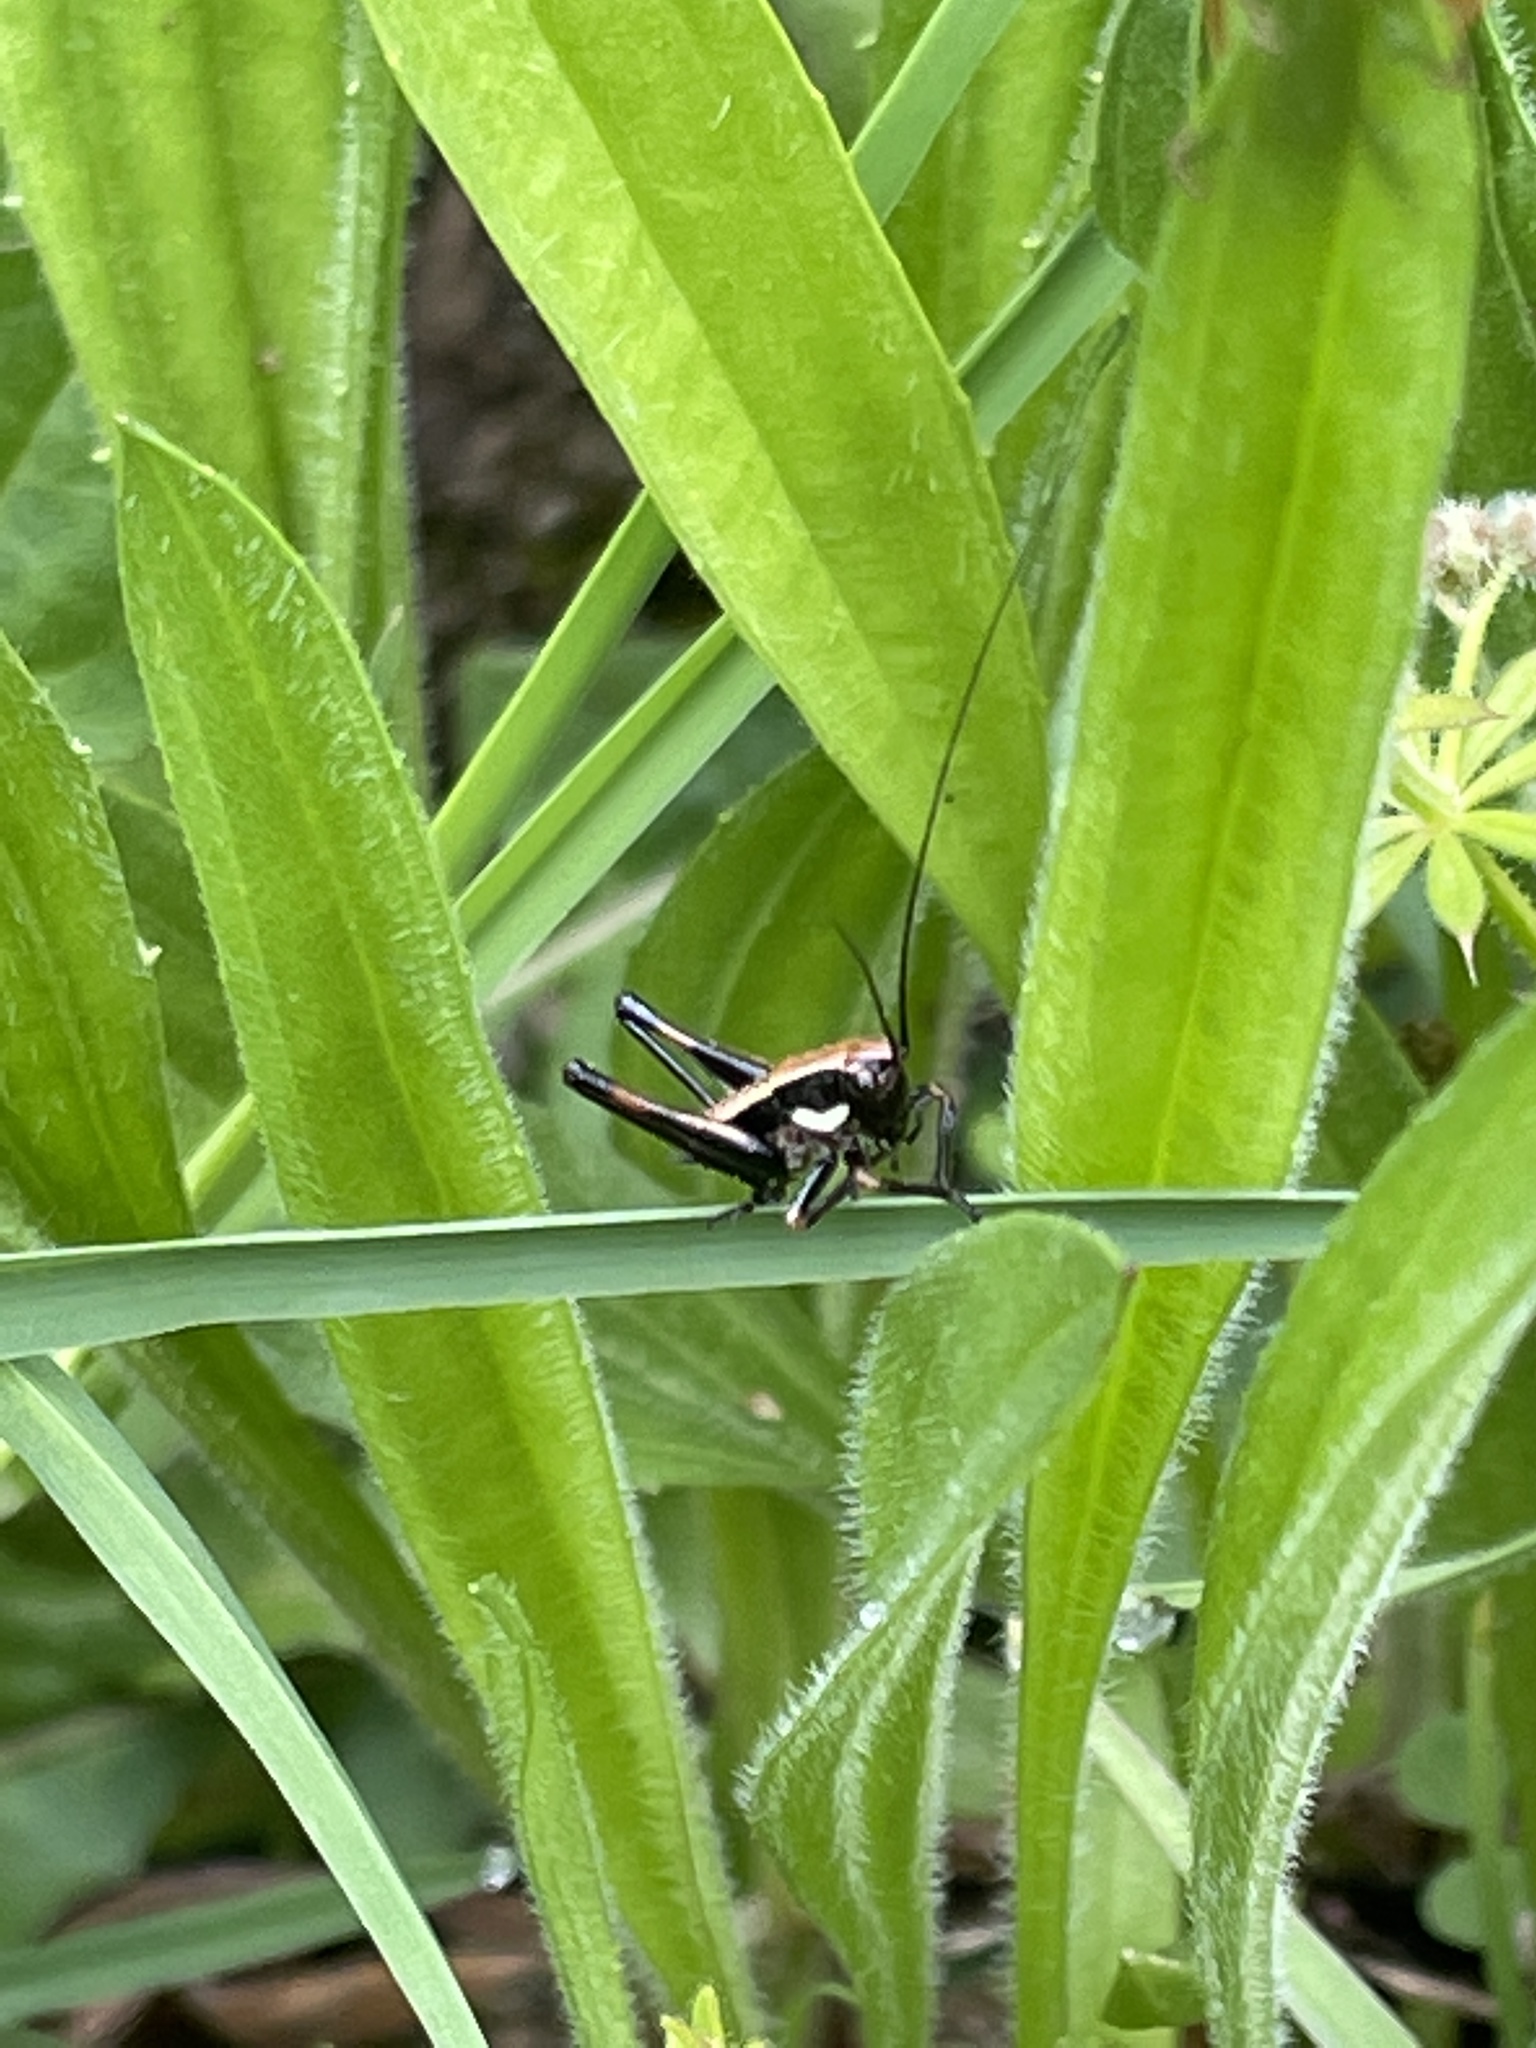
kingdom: Animalia
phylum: Arthropoda
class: Insecta
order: Orthoptera
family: Tettigoniidae
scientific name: Tettigoniidae
